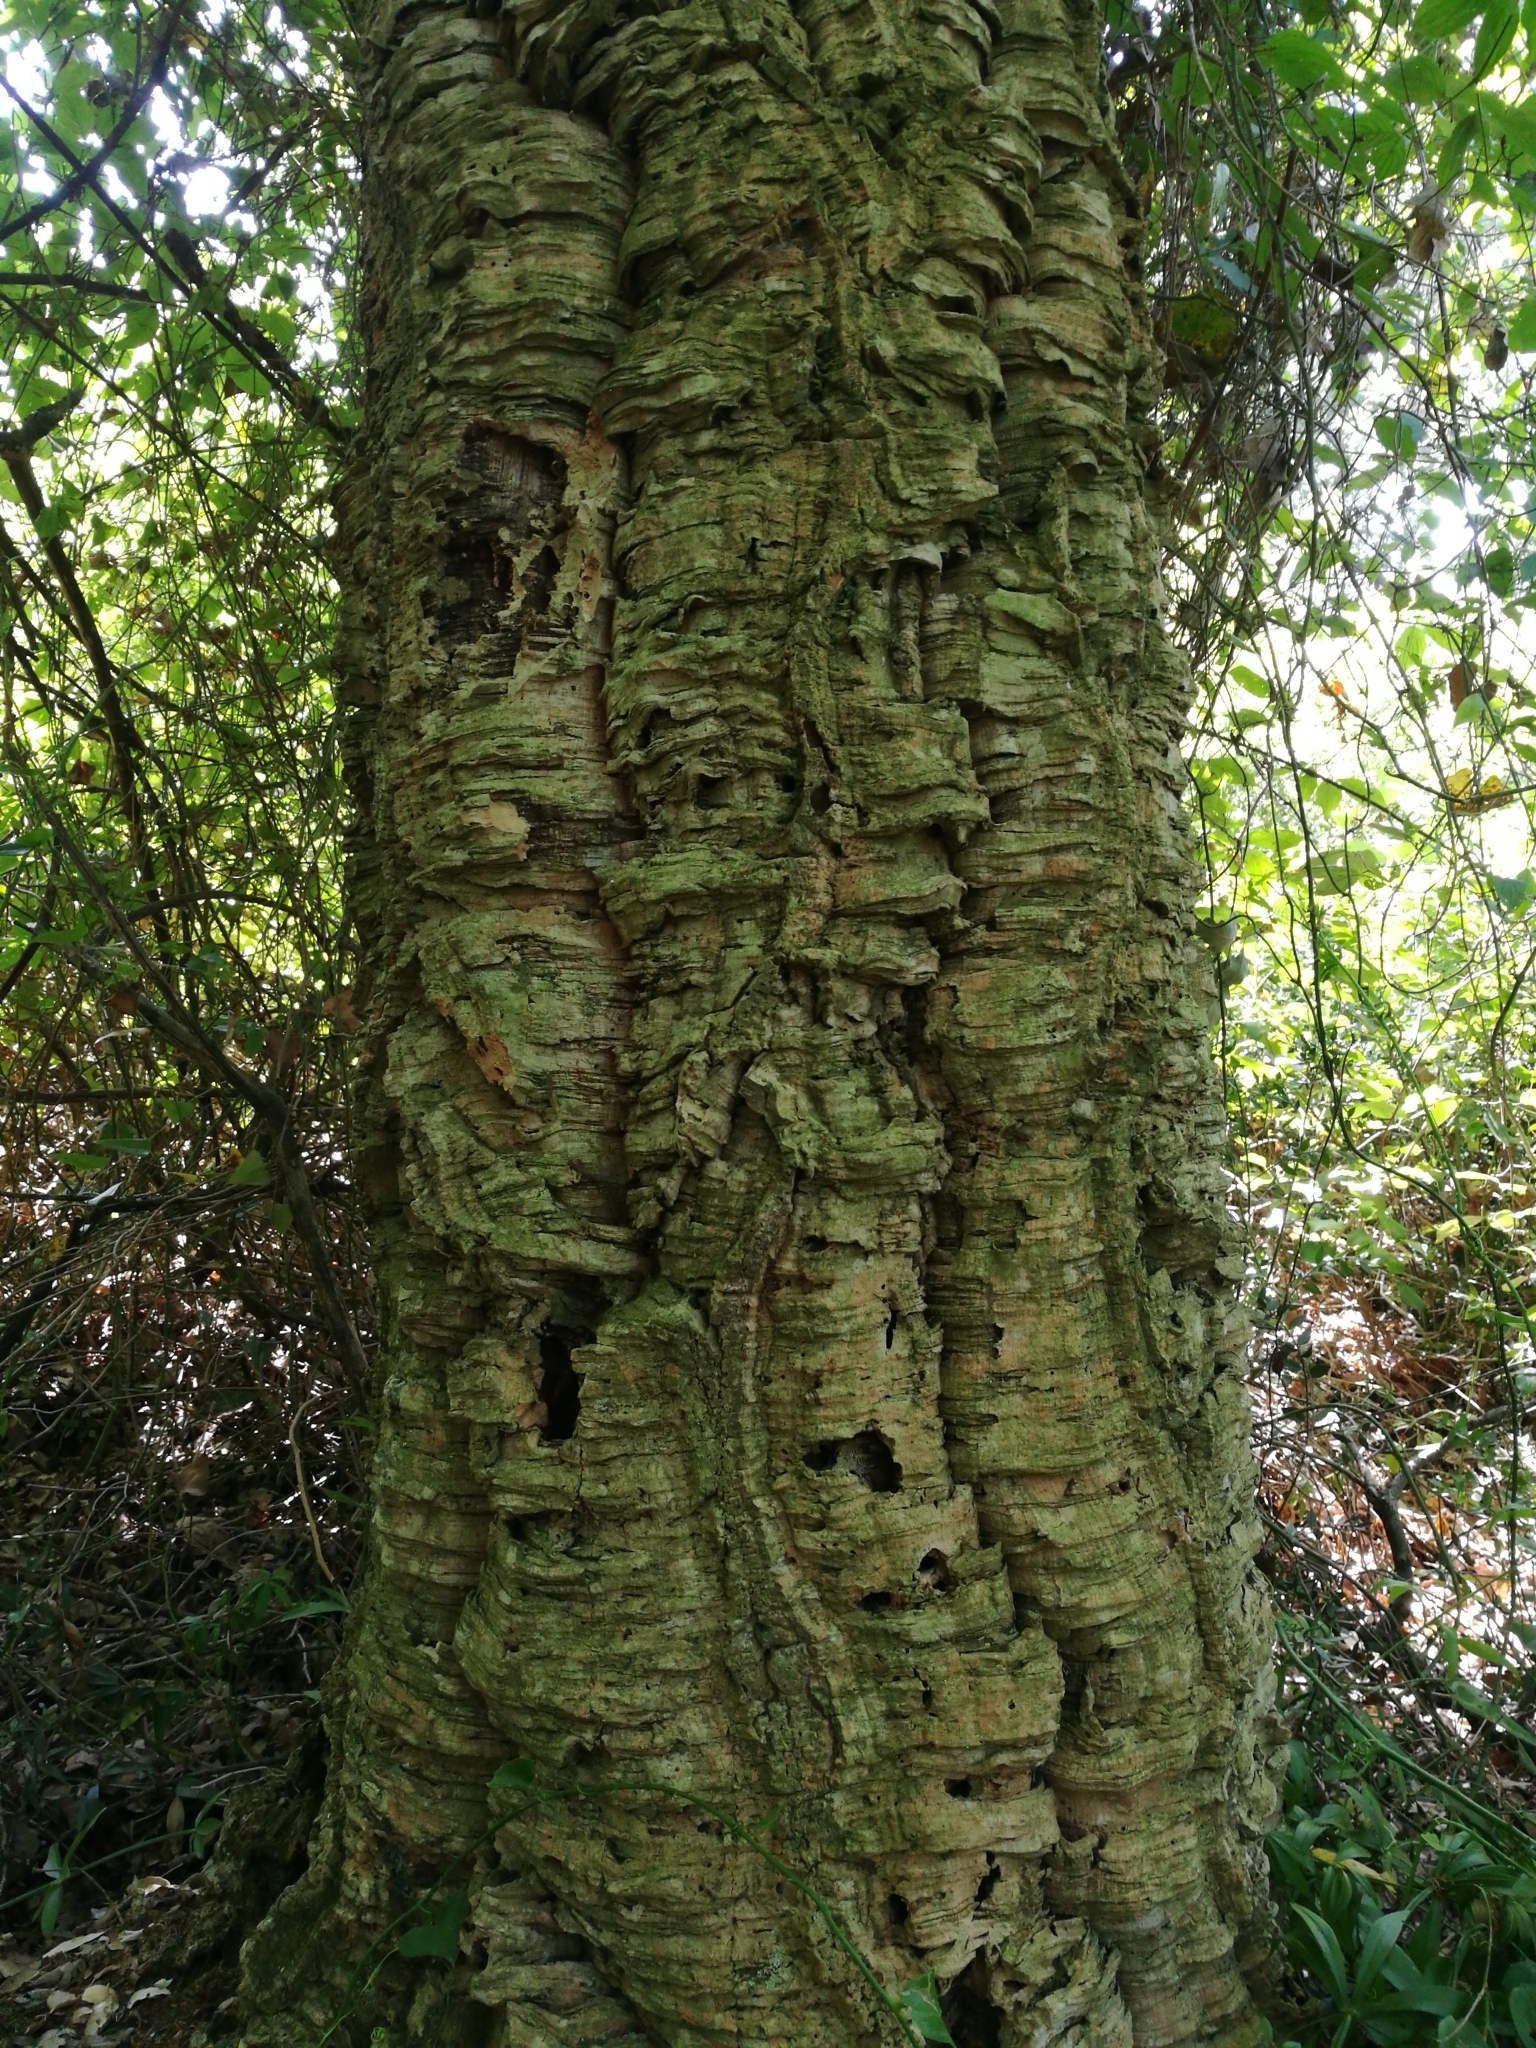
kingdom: Plantae
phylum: Tracheophyta
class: Magnoliopsida
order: Fagales
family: Fagaceae
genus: Quercus
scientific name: Quercus suber
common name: Cork oak
